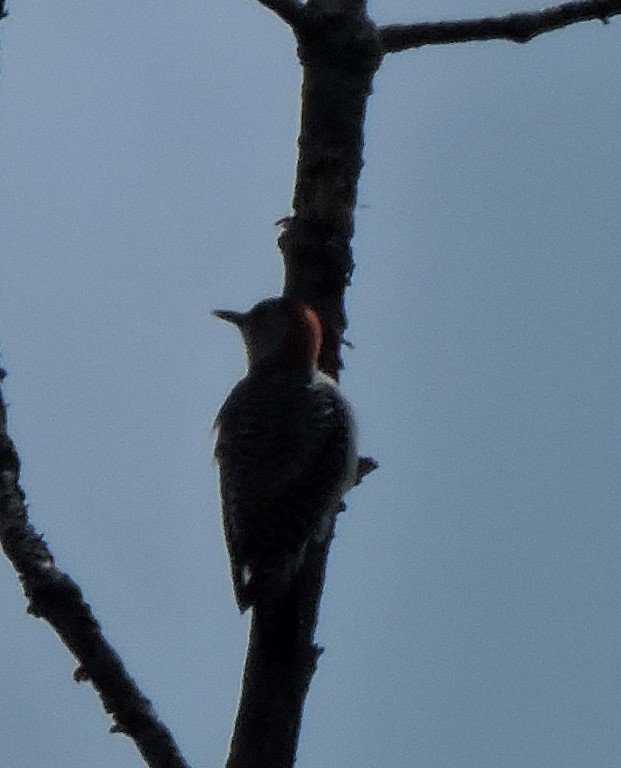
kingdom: Animalia
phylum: Chordata
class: Aves
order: Piciformes
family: Picidae
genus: Melanerpes
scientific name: Melanerpes carolinus
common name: Red-bellied woodpecker
